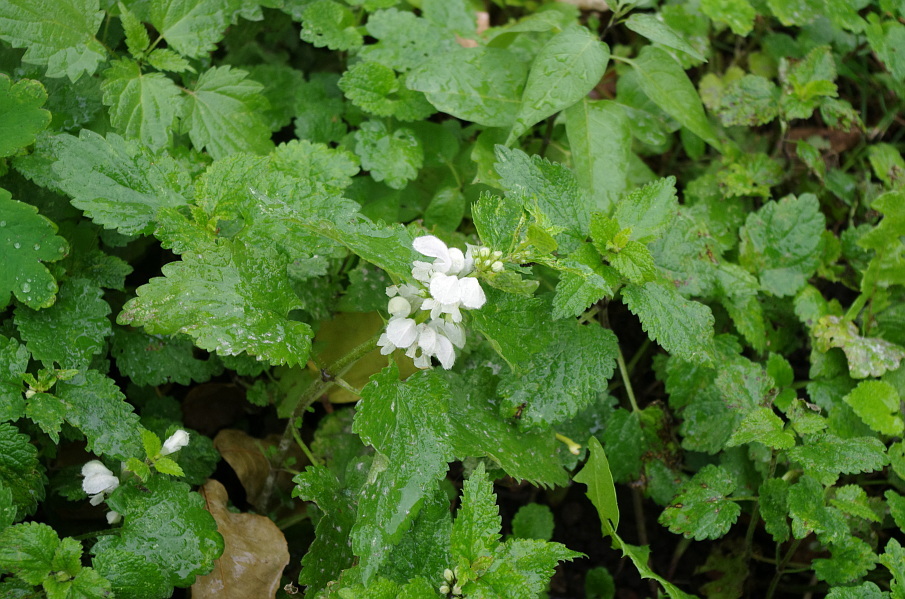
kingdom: Plantae
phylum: Tracheophyta
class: Magnoliopsida
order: Lamiales
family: Lamiaceae
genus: Lamium
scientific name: Lamium album
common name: White dead-nettle
